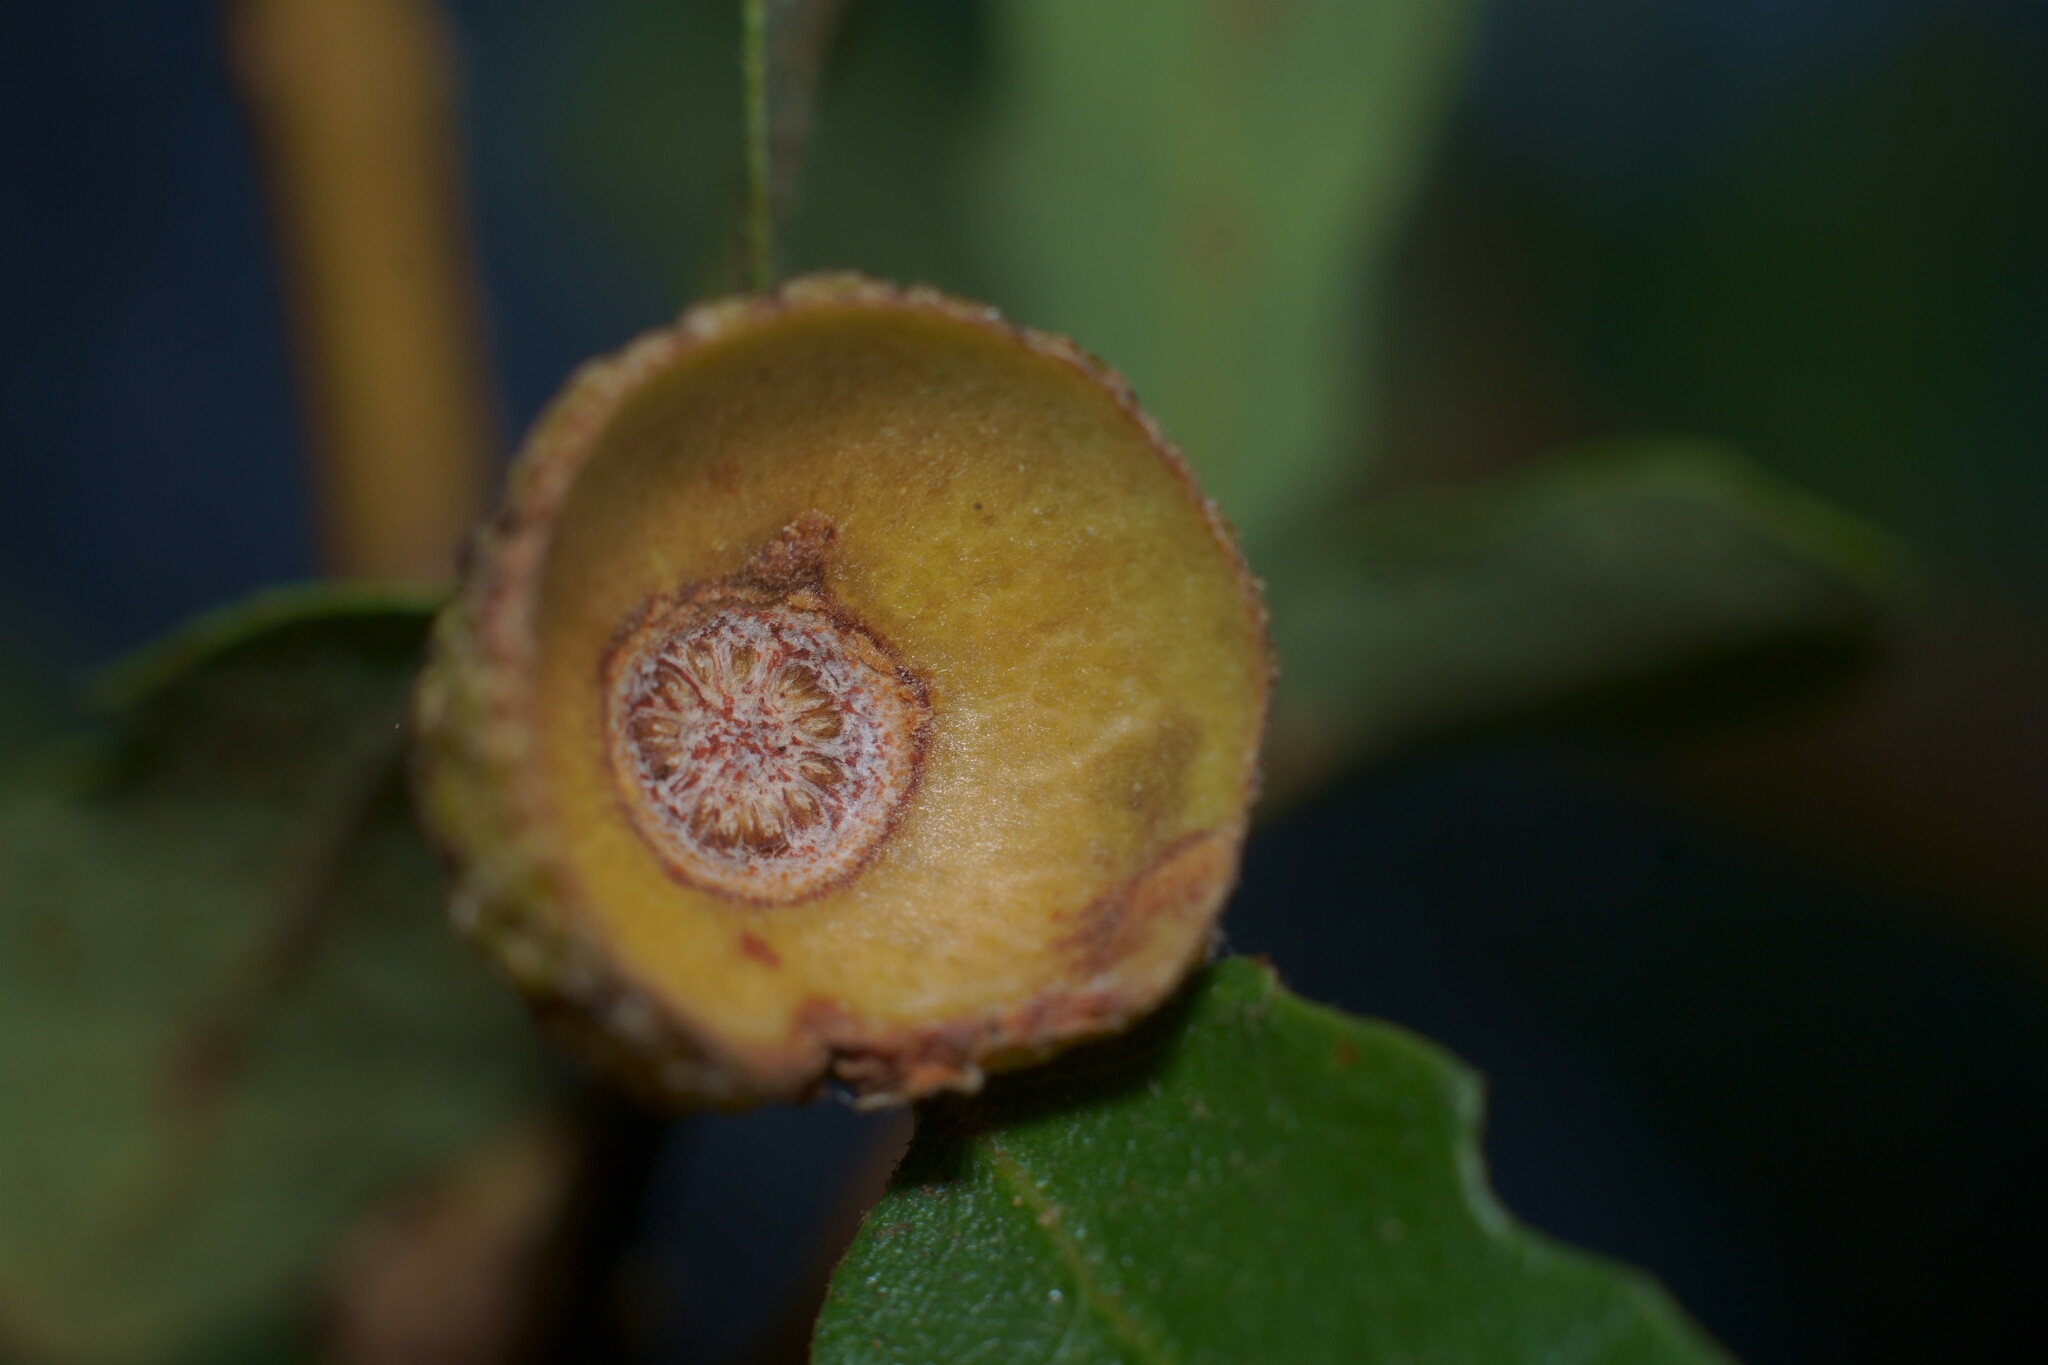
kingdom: Plantae
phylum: Tracheophyta
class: Magnoliopsida
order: Fagales
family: Fagaceae
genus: Quercus
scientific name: Quercus dumosa
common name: Coastal sage scrub oak
